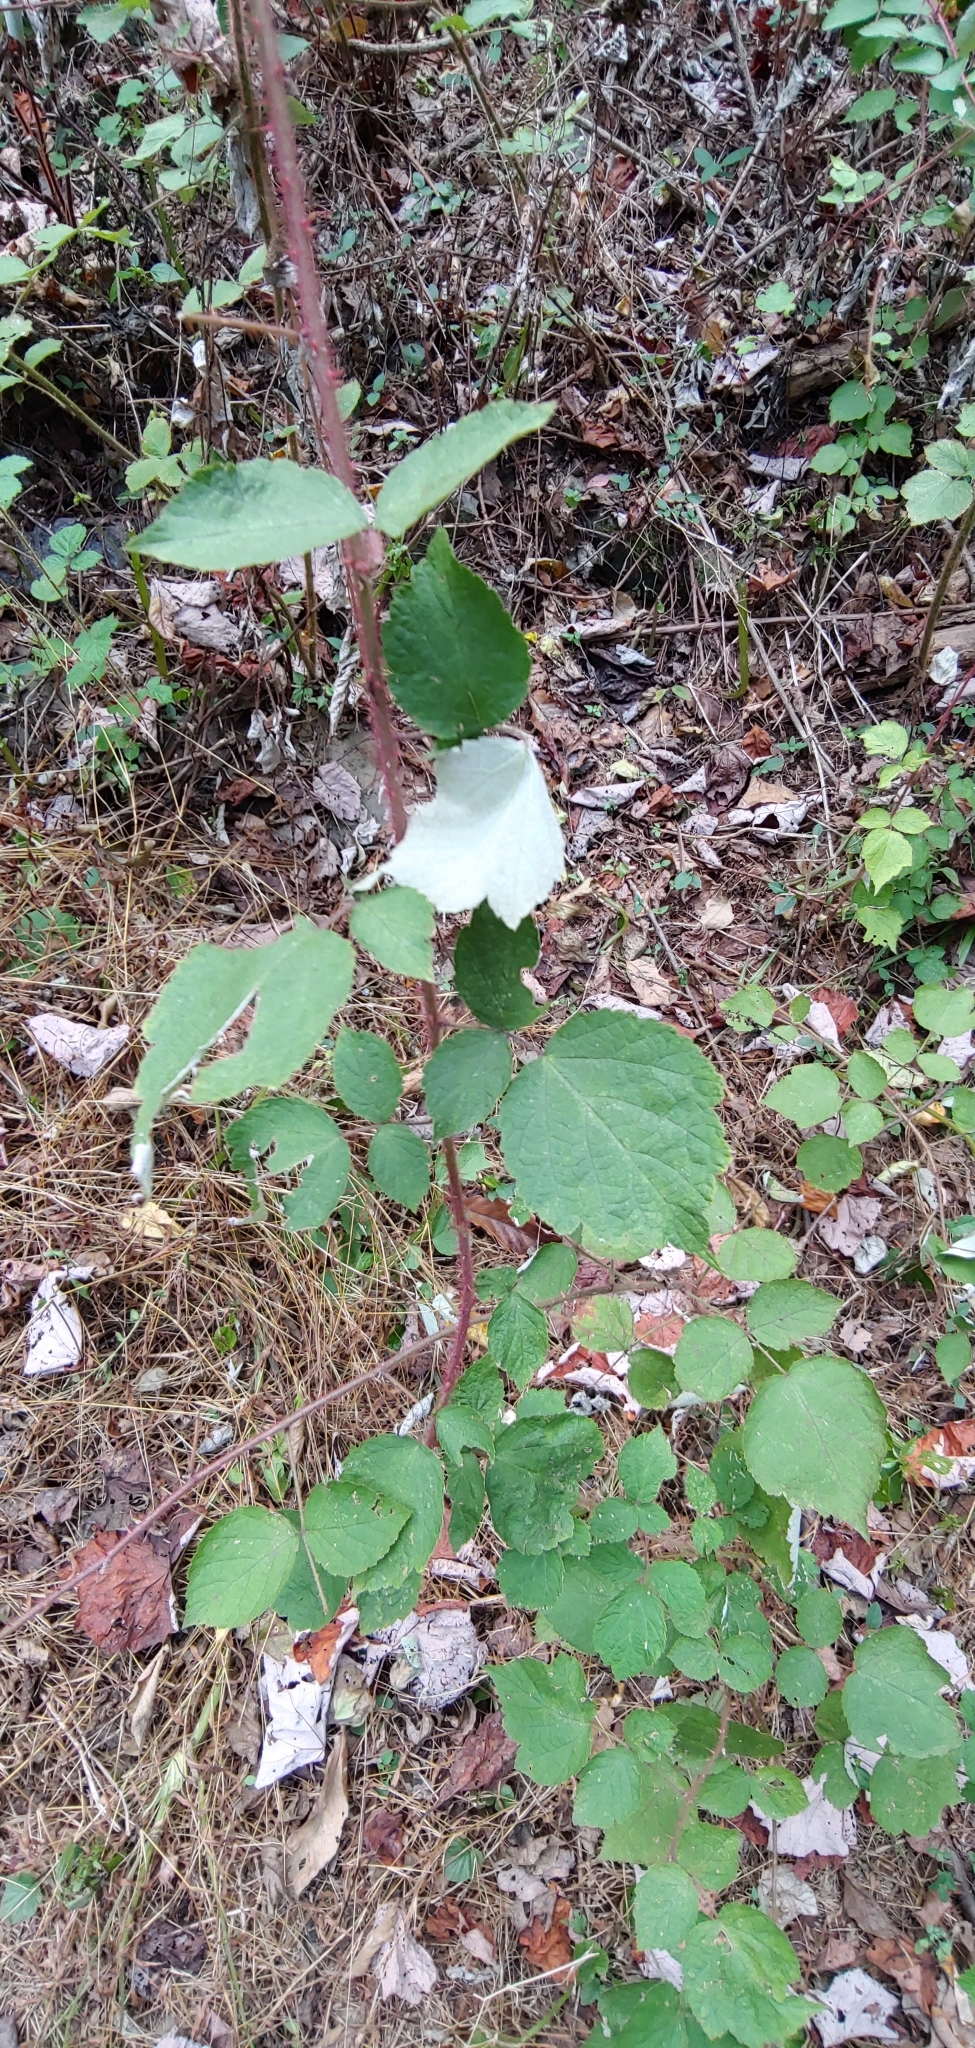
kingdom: Plantae
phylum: Tracheophyta
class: Magnoliopsida
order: Rosales
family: Rosaceae
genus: Rubus
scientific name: Rubus phoenicolasius
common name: Japanese wineberry
